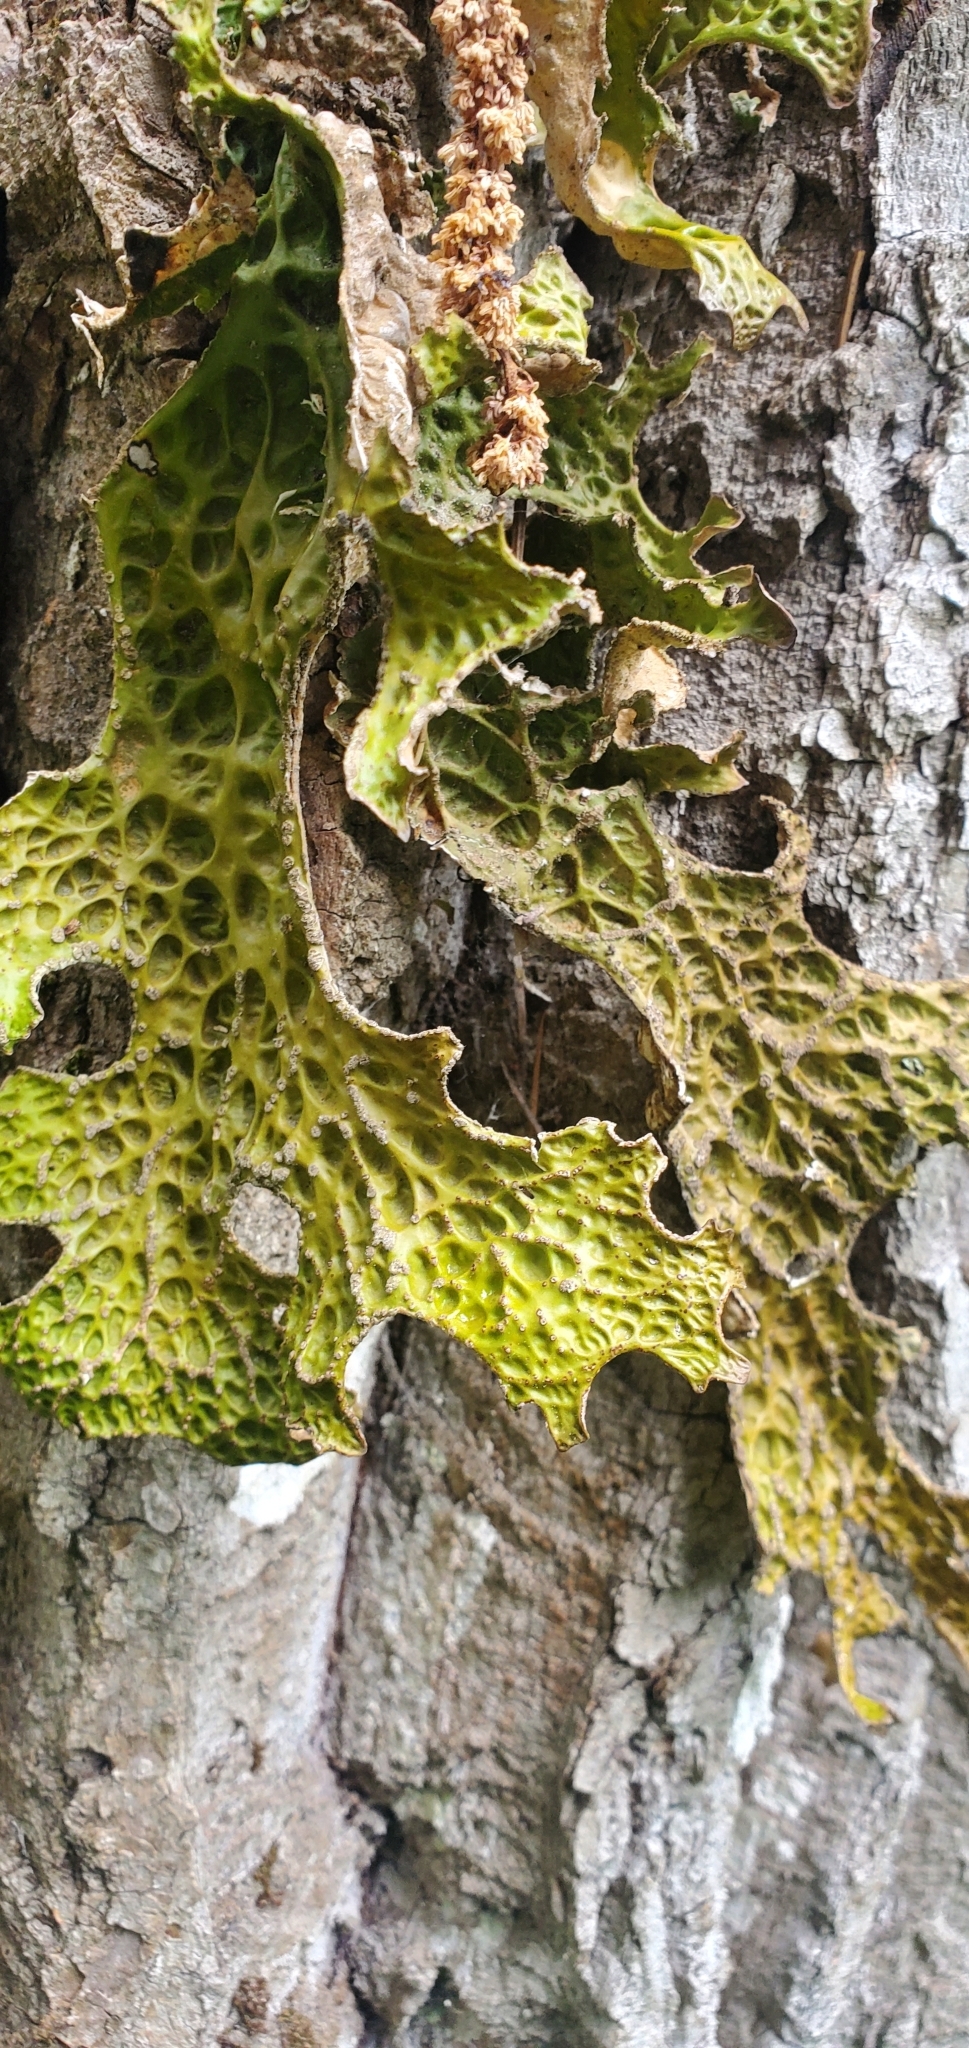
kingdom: Fungi
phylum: Ascomycota
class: Lecanoromycetes
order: Peltigerales
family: Lobariaceae
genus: Lobaria
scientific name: Lobaria pulmonaria
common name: Lungwort
